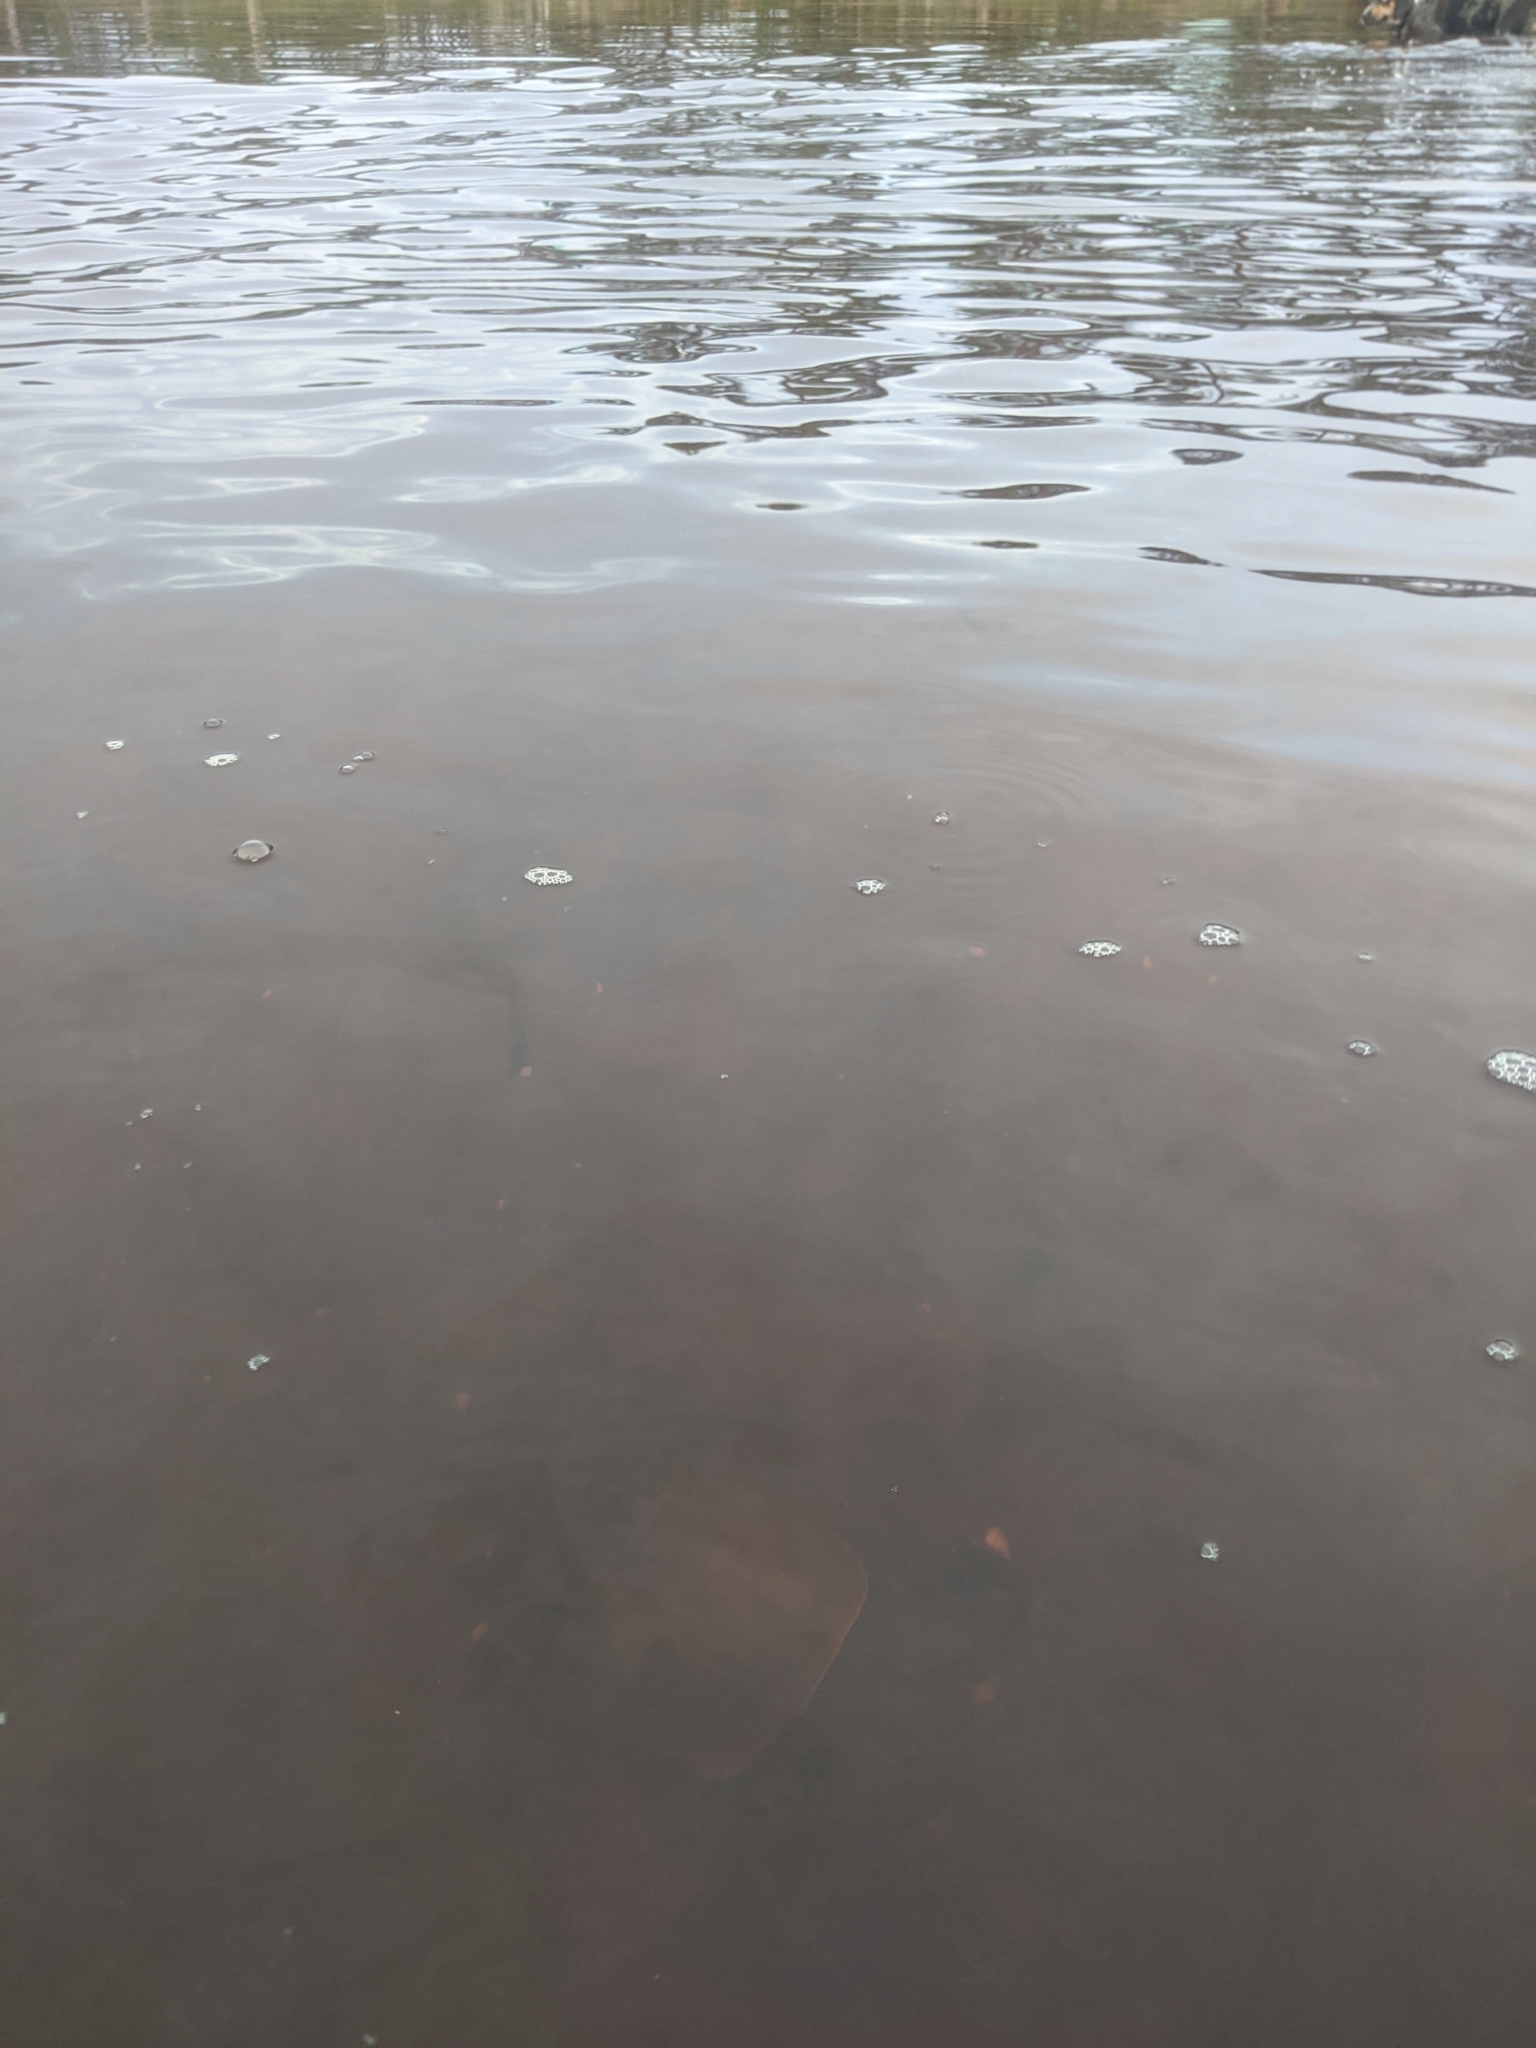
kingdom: Animalia
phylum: Arthropoda
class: Merostomata
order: Xiphosurida
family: Limulidae
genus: Limulus
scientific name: Limulus polyphemus
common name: Horseshoe crab
